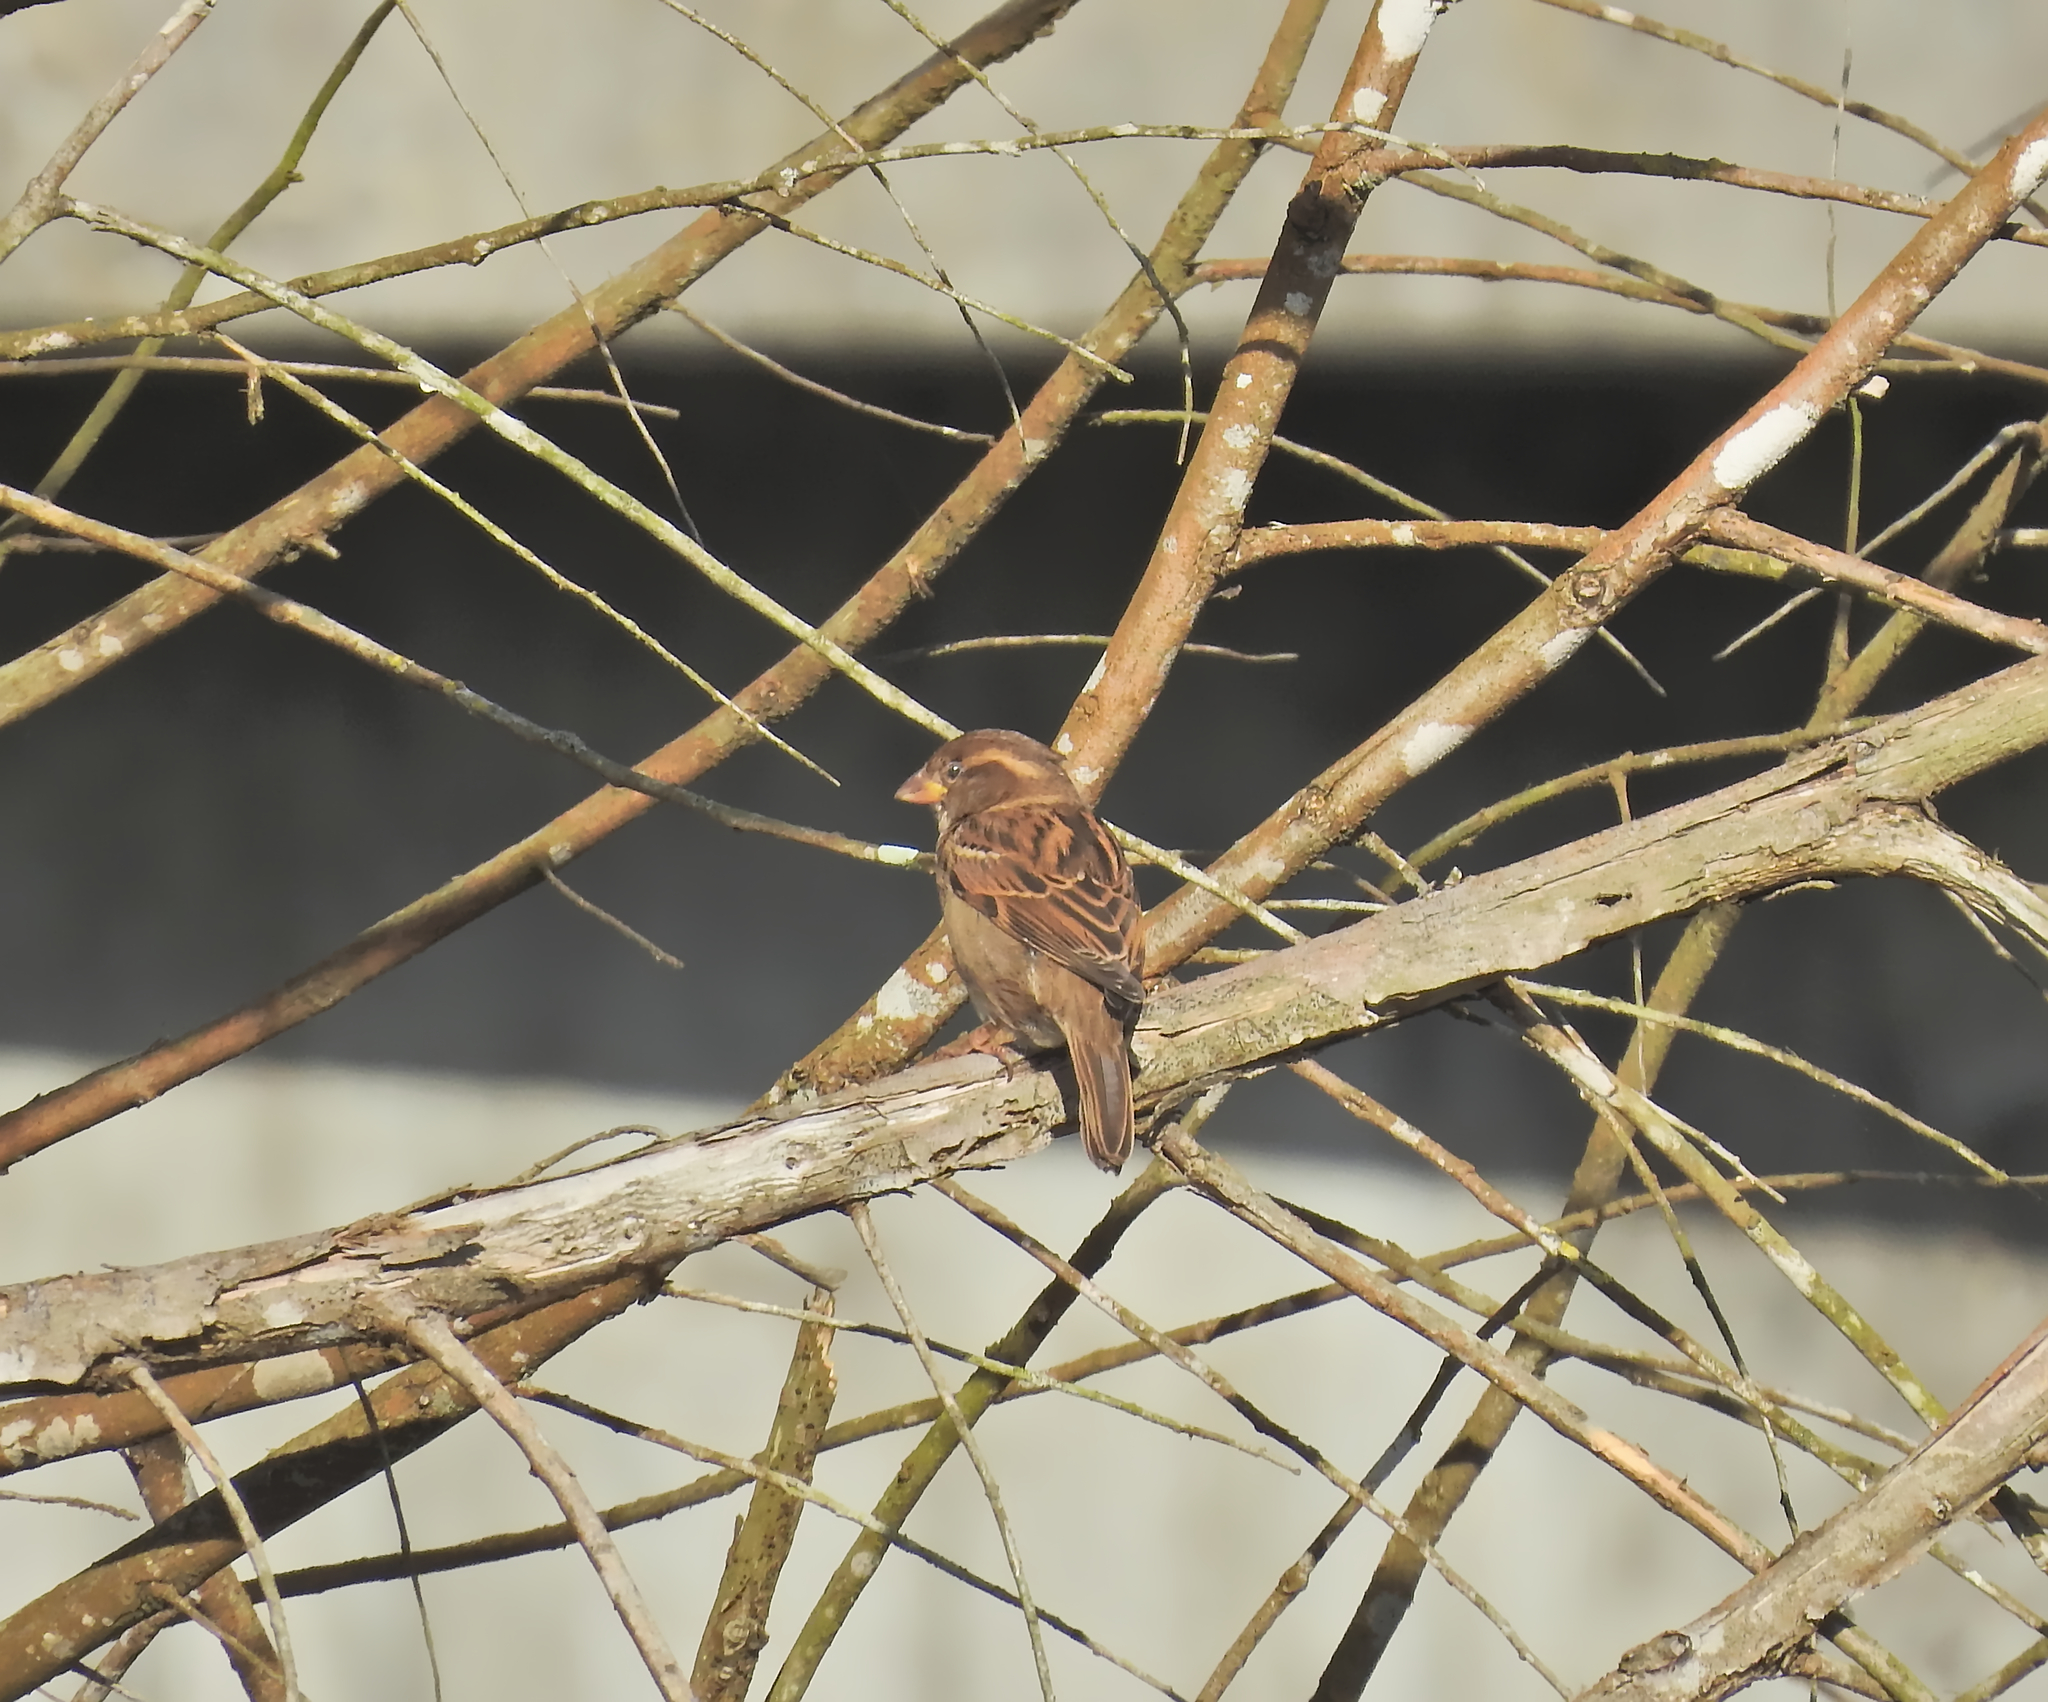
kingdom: Animalia
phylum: Chordata
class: Aves
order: Passeriformes
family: Passeridae
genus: Passer
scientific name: Passer domesticus
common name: House sparrow
